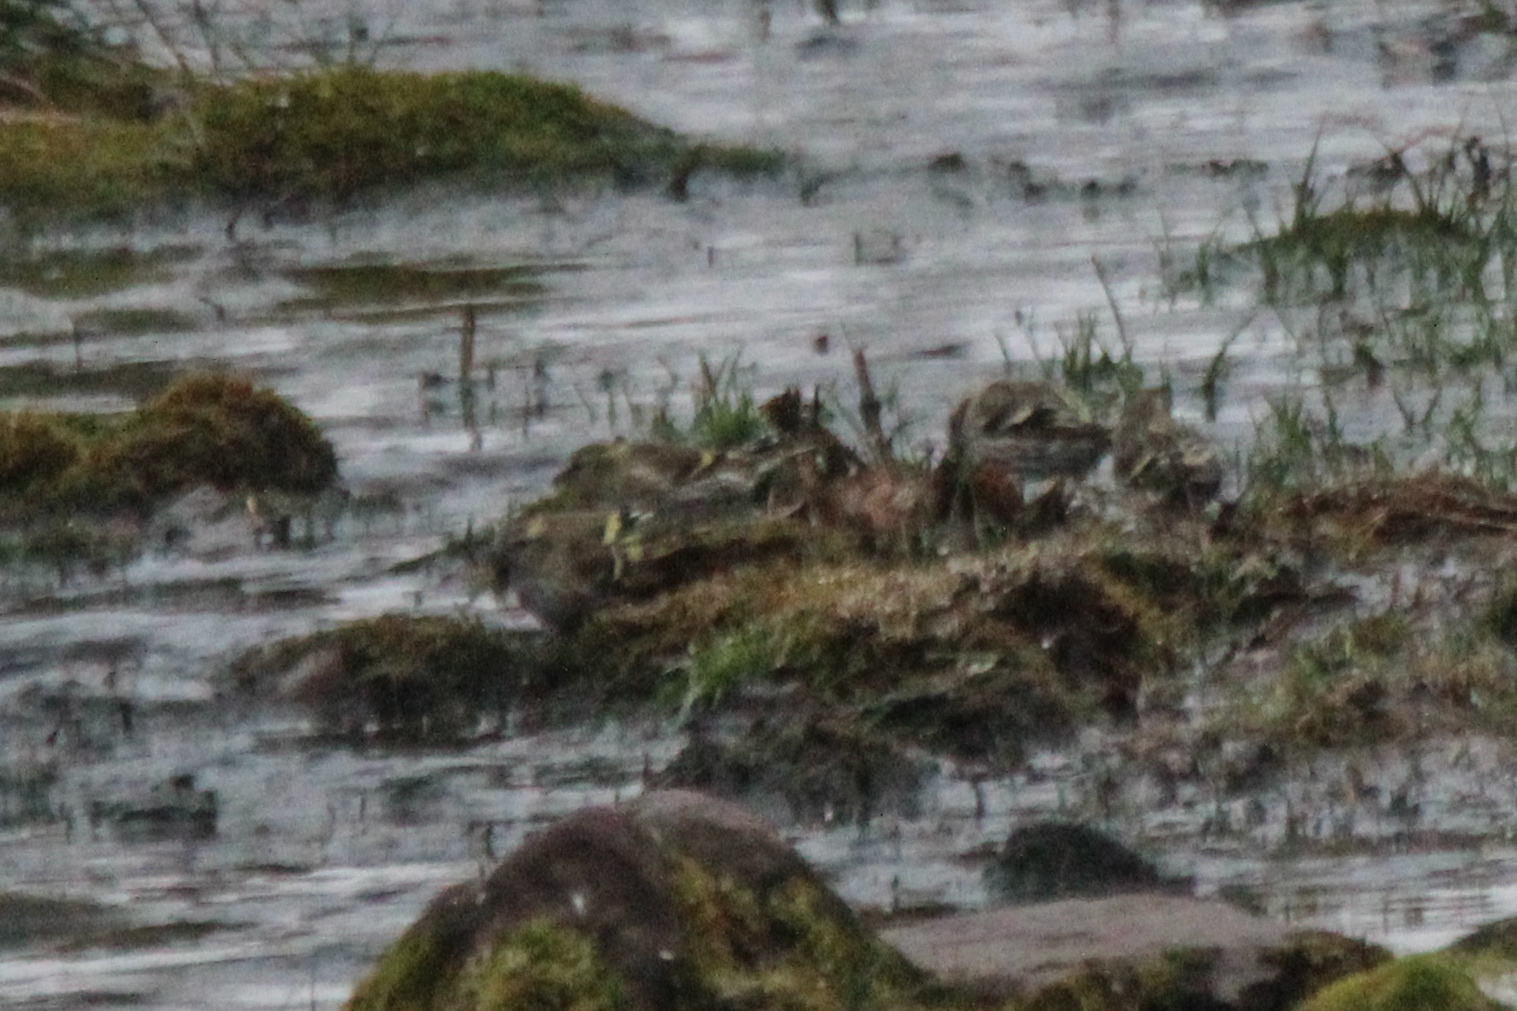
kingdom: Animalia
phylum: Chordata
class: Aves
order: Passeriformes
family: Fringillidae
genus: Spinus
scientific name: Spinus spinus
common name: Eurasian siskin
